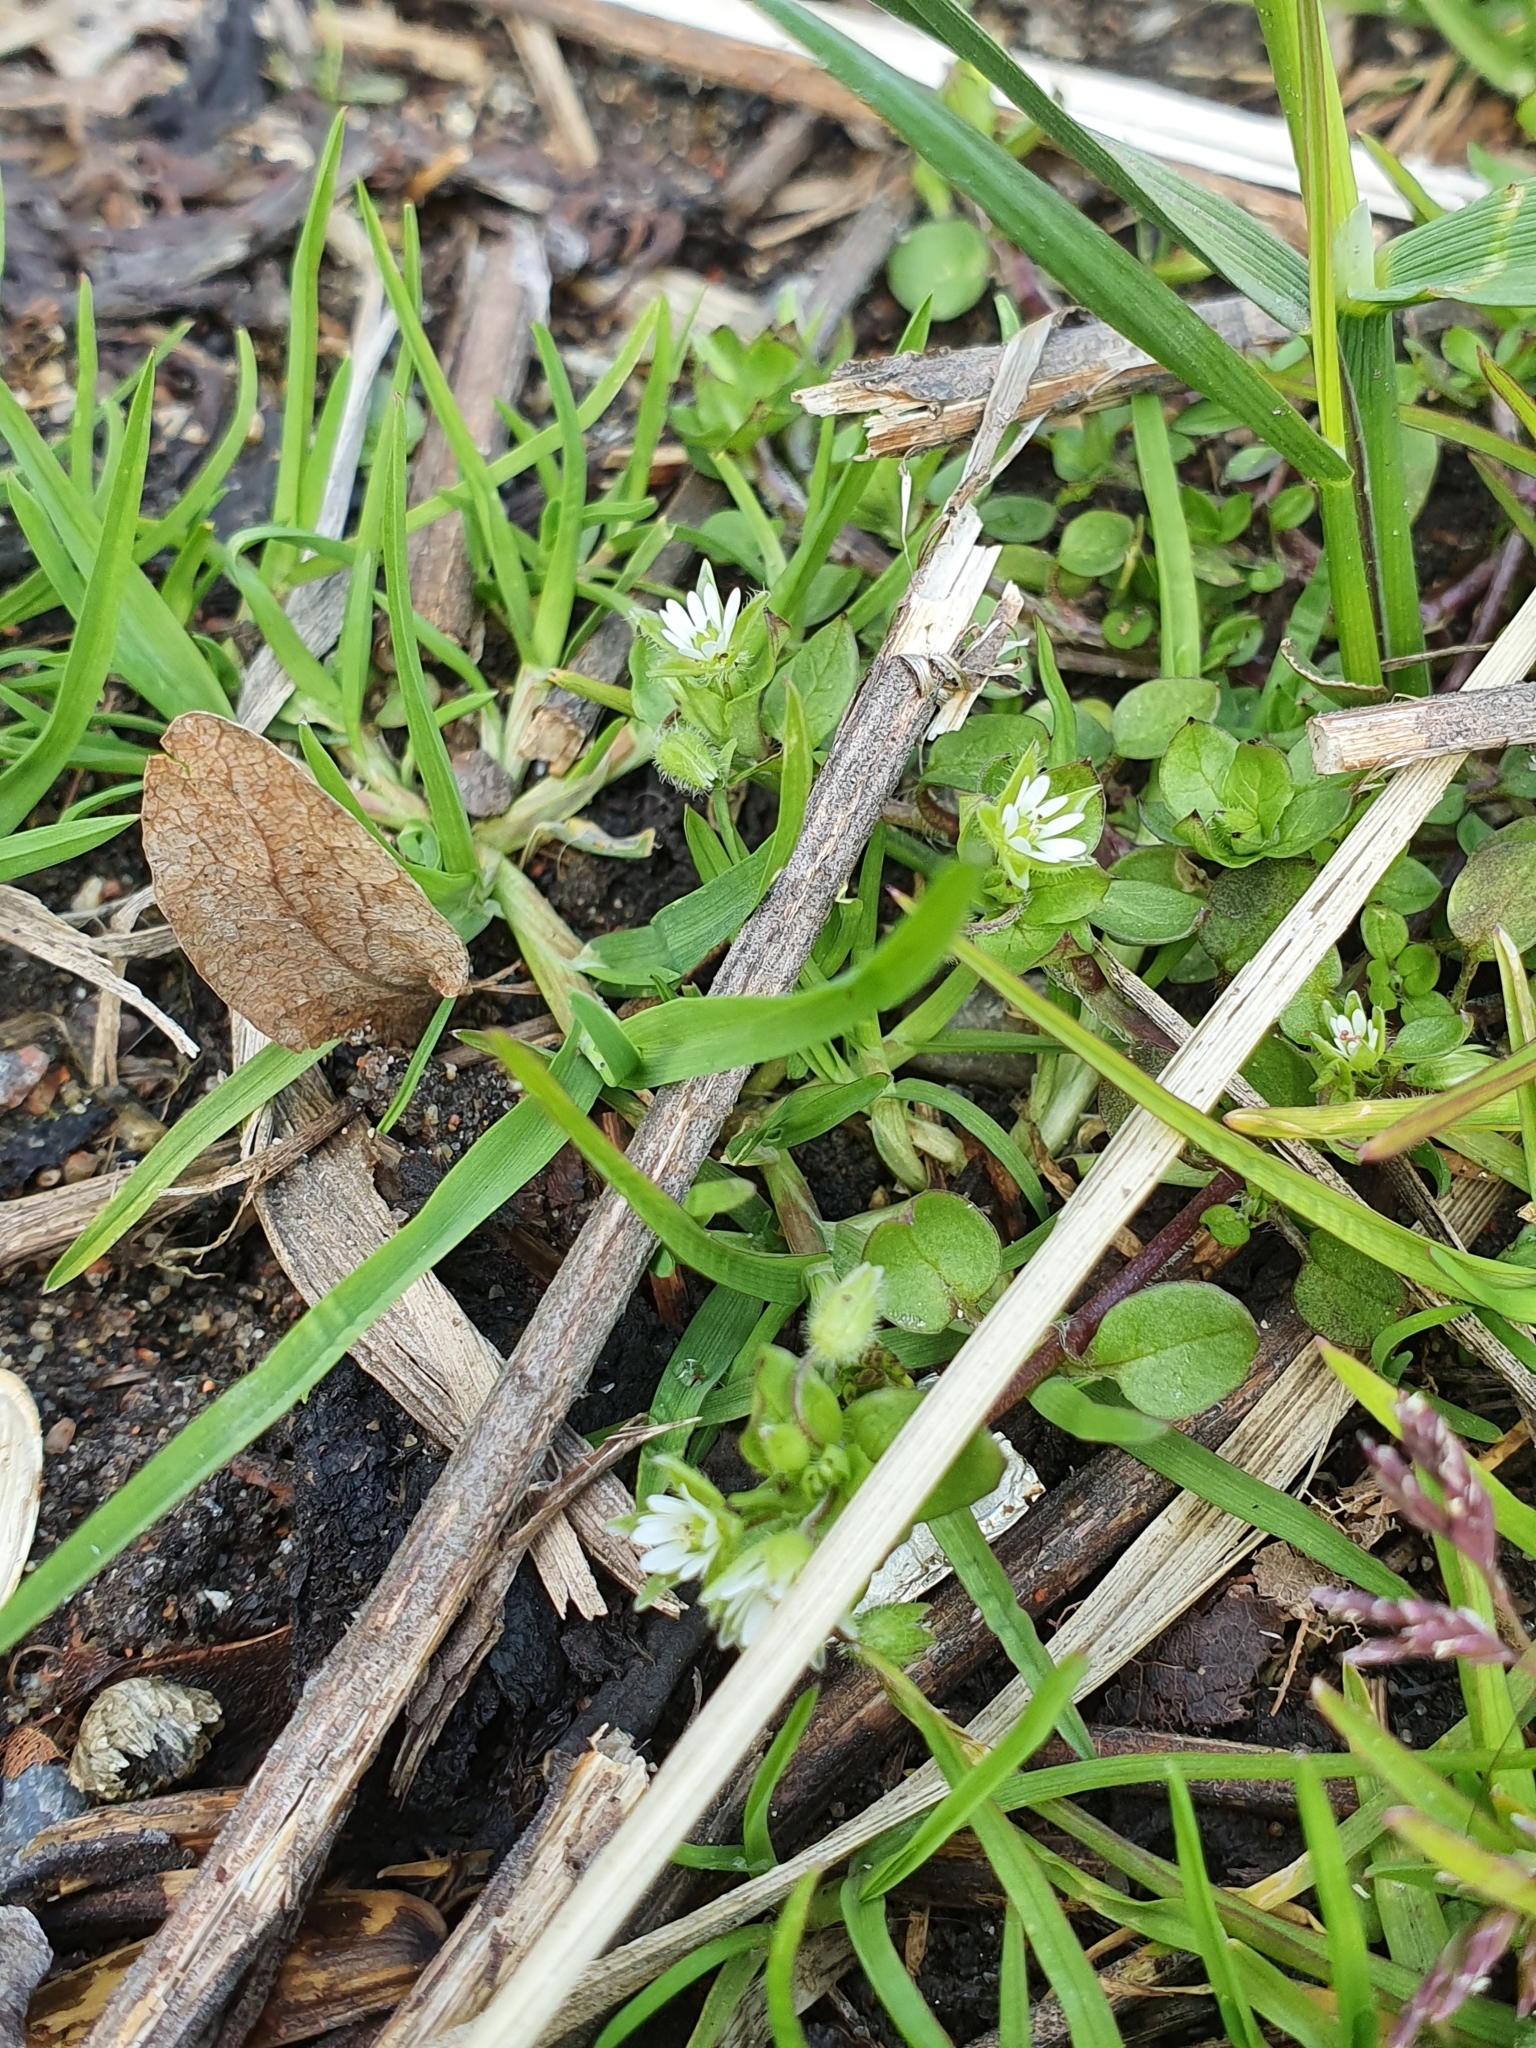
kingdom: Plantae
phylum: Tracheophyta
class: Magnoliopsida
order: Caryophyllales
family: Caryophyllaceae
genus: Stellaria
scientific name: Stellaria media
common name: Common chickweed
